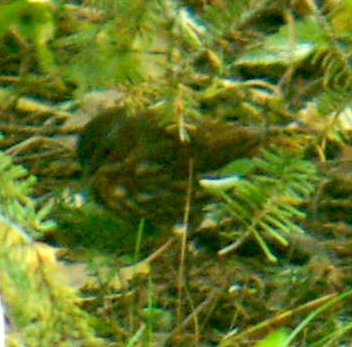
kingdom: Animalia
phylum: Chordata
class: Aves
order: Passeriformes
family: Passerellidae
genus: Passerella
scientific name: Passerella iliaca
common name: Fox sparrow
